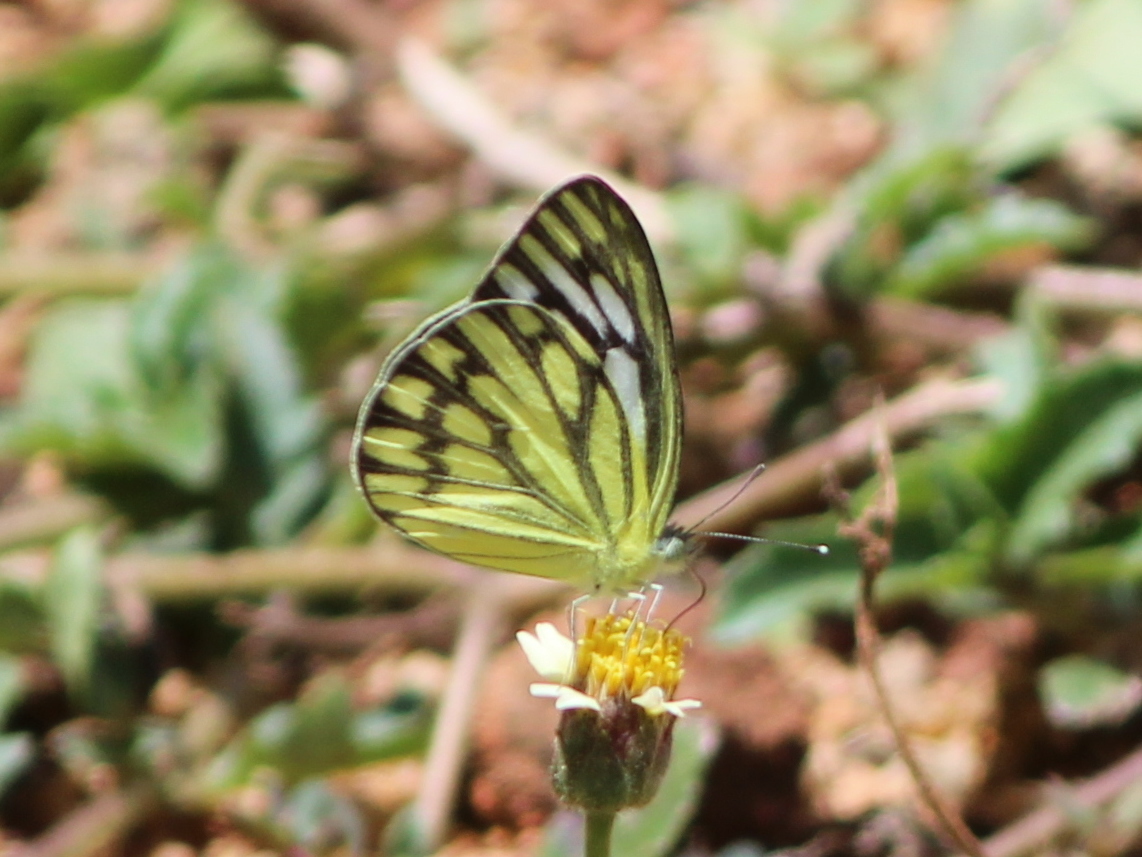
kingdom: Animalia
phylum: Arthropoda
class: Insecta
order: Lepidoptera
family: Pieridae
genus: Cepora
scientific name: Cepora nerissa
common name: Common gull
